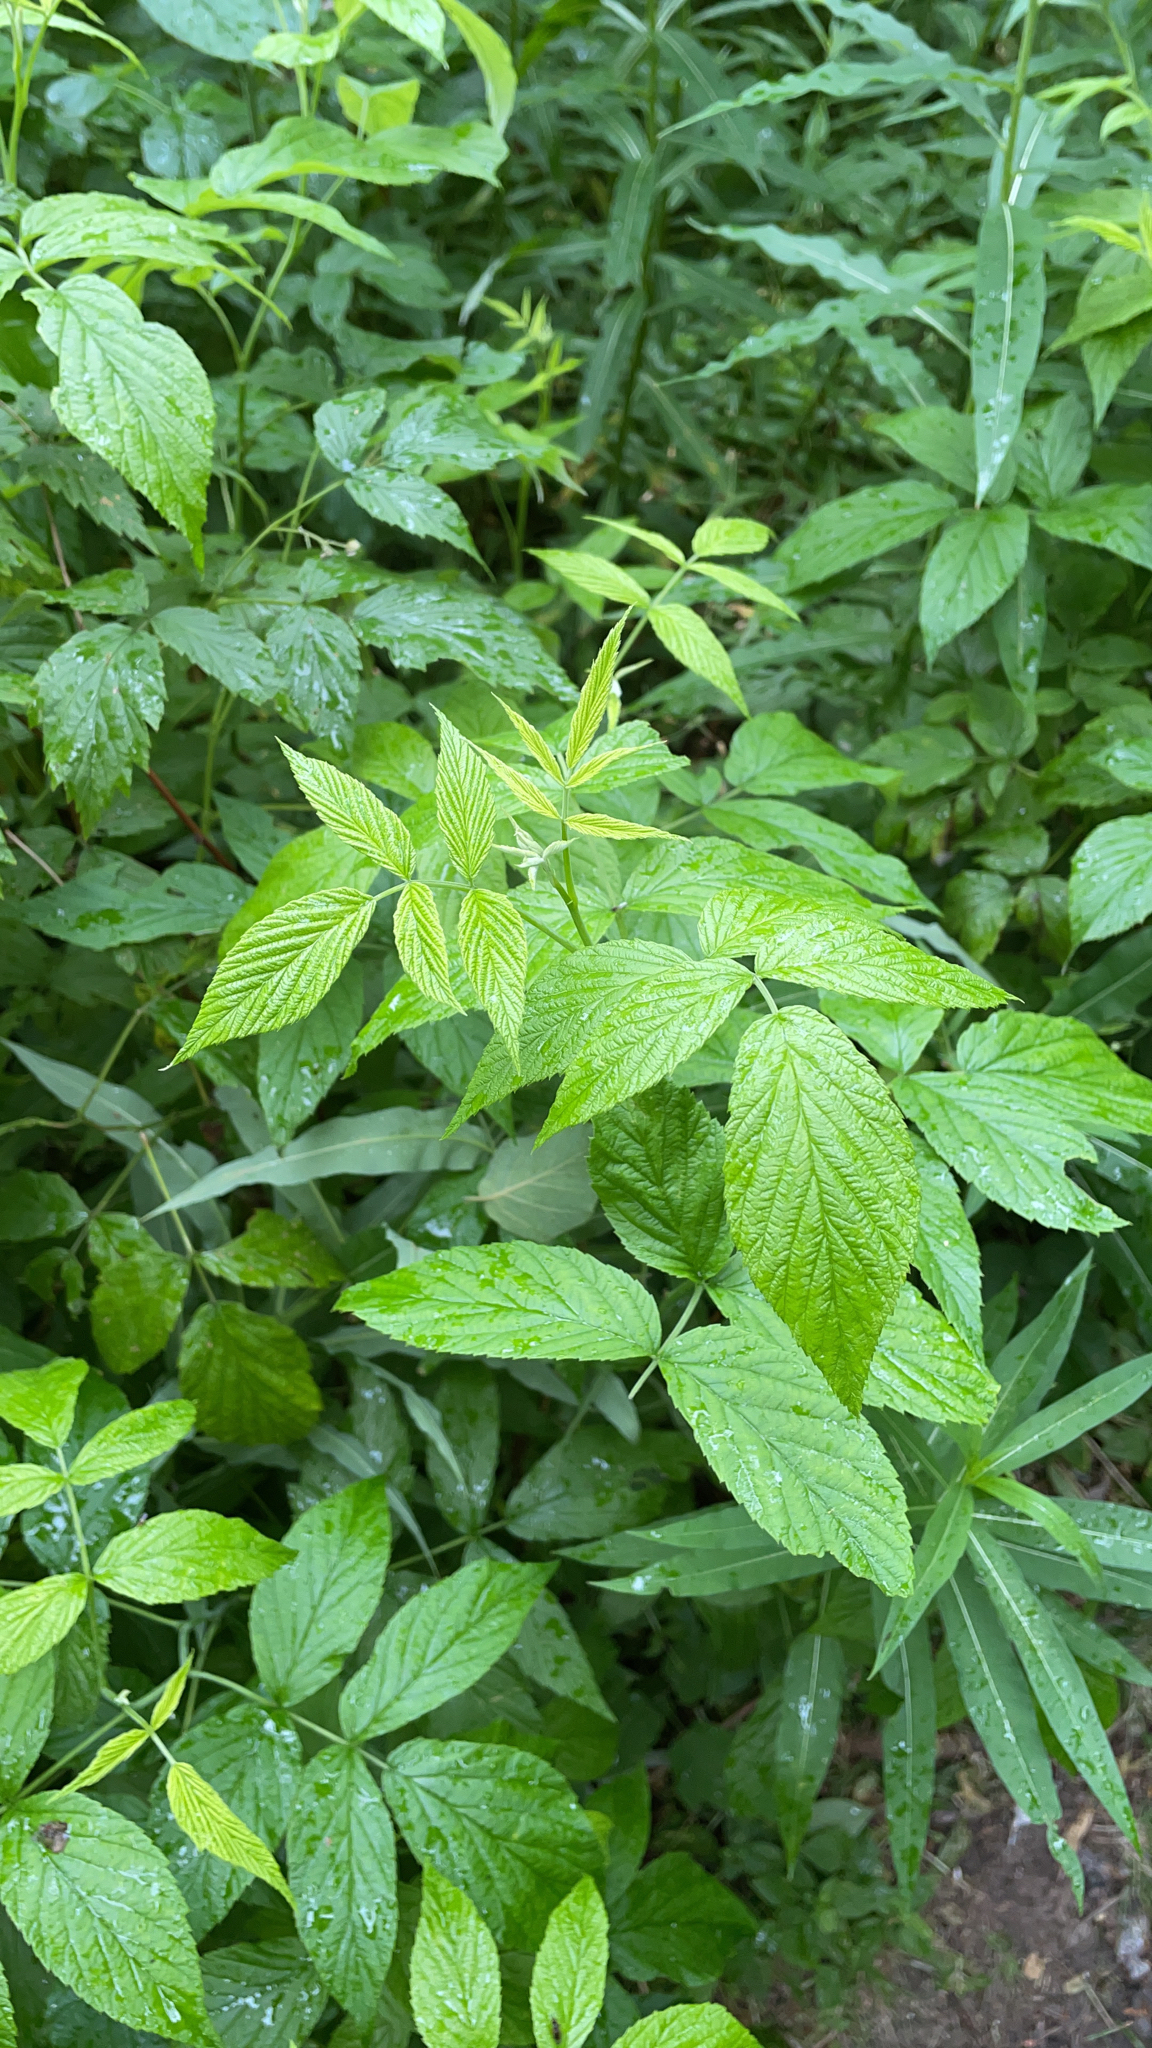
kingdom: Plantae
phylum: Tracheophyta
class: Magnoliopsida
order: Rosales
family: Rosaceae
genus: Rubus
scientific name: Rubus idaeus
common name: Raspberry
